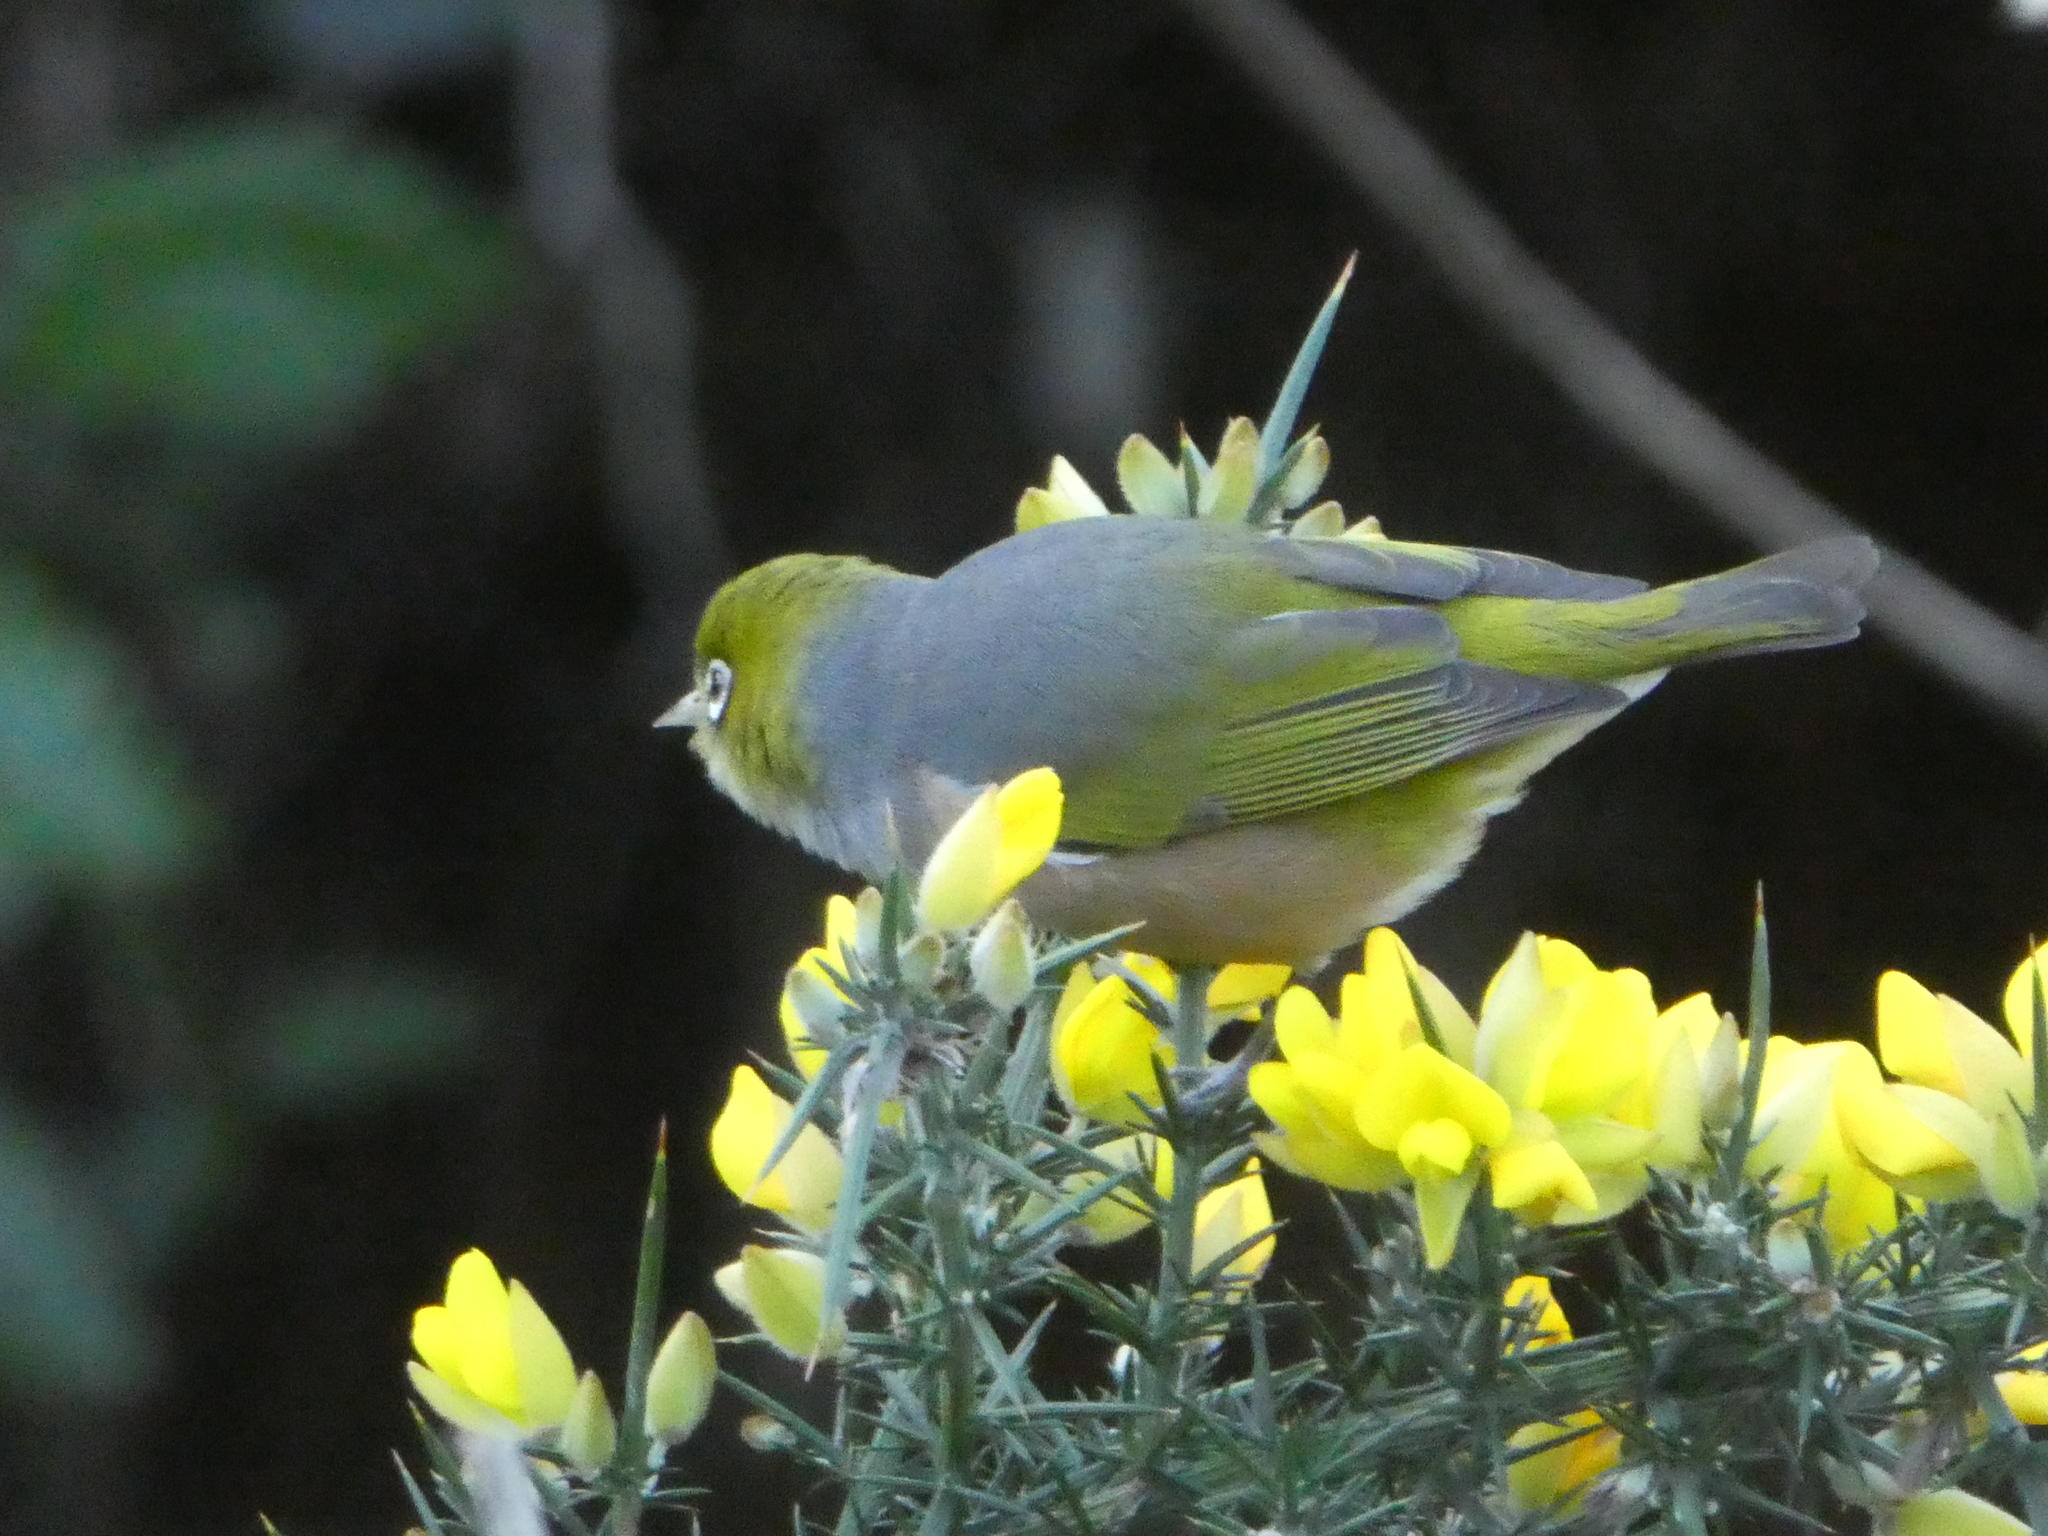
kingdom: Animalia
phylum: Chordata
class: Aves
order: Passeriformes
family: Zosteropidae
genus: Zosterops
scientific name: Zosterops lateralis
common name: Silvereye
